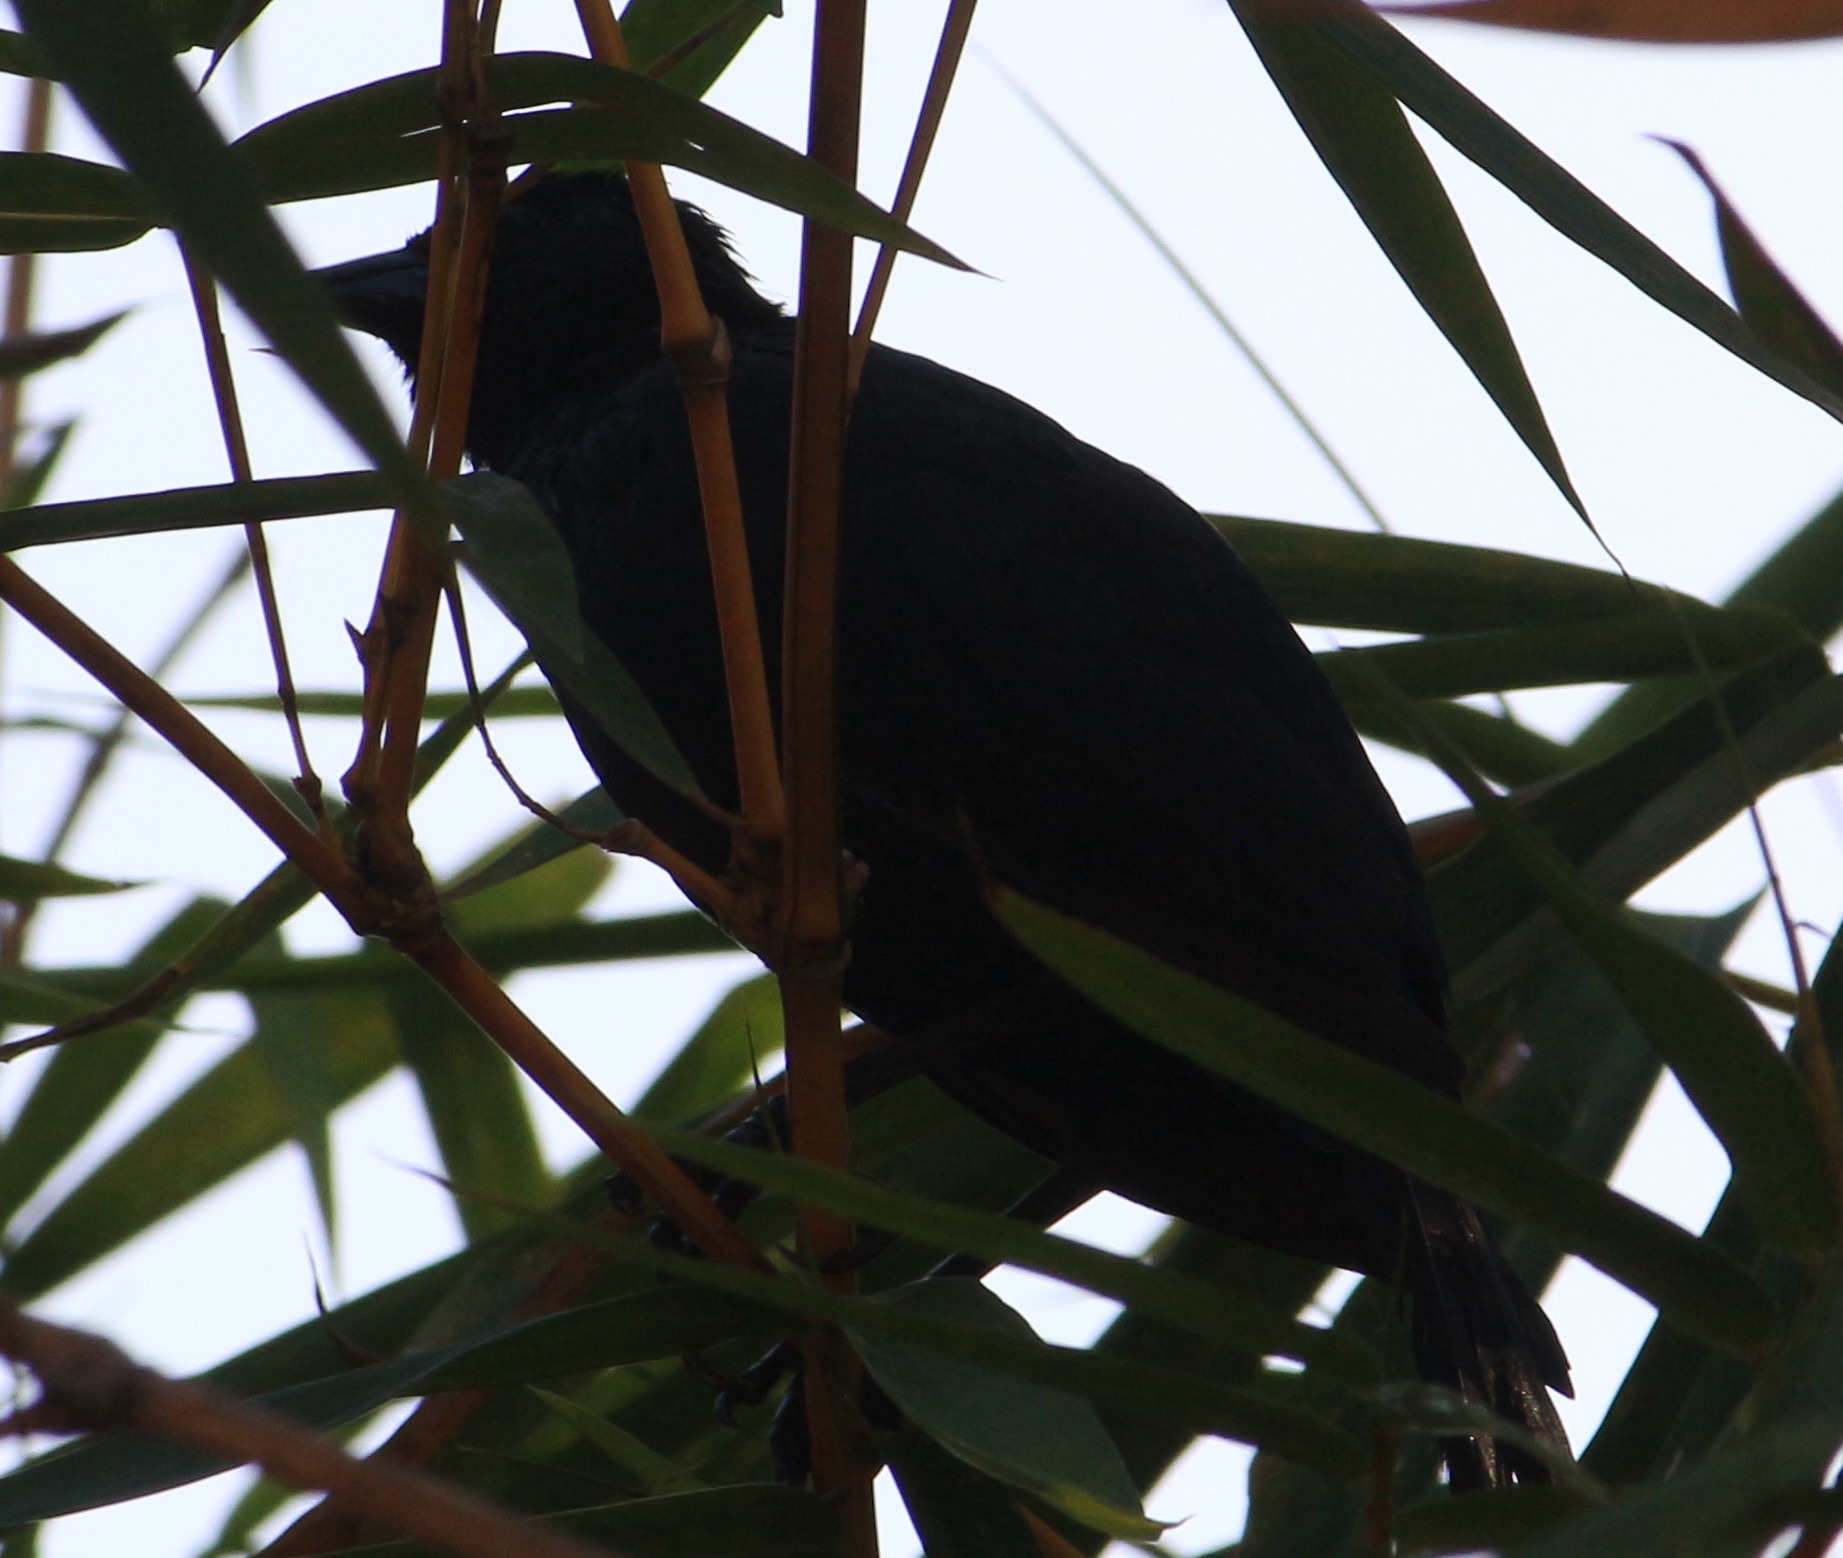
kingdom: Animalia
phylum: Chordata
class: Aves
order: Passeriformes
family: Icteridae
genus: Gnorimopsar
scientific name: Gnorimopsar chopi
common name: Chopi blackbird
